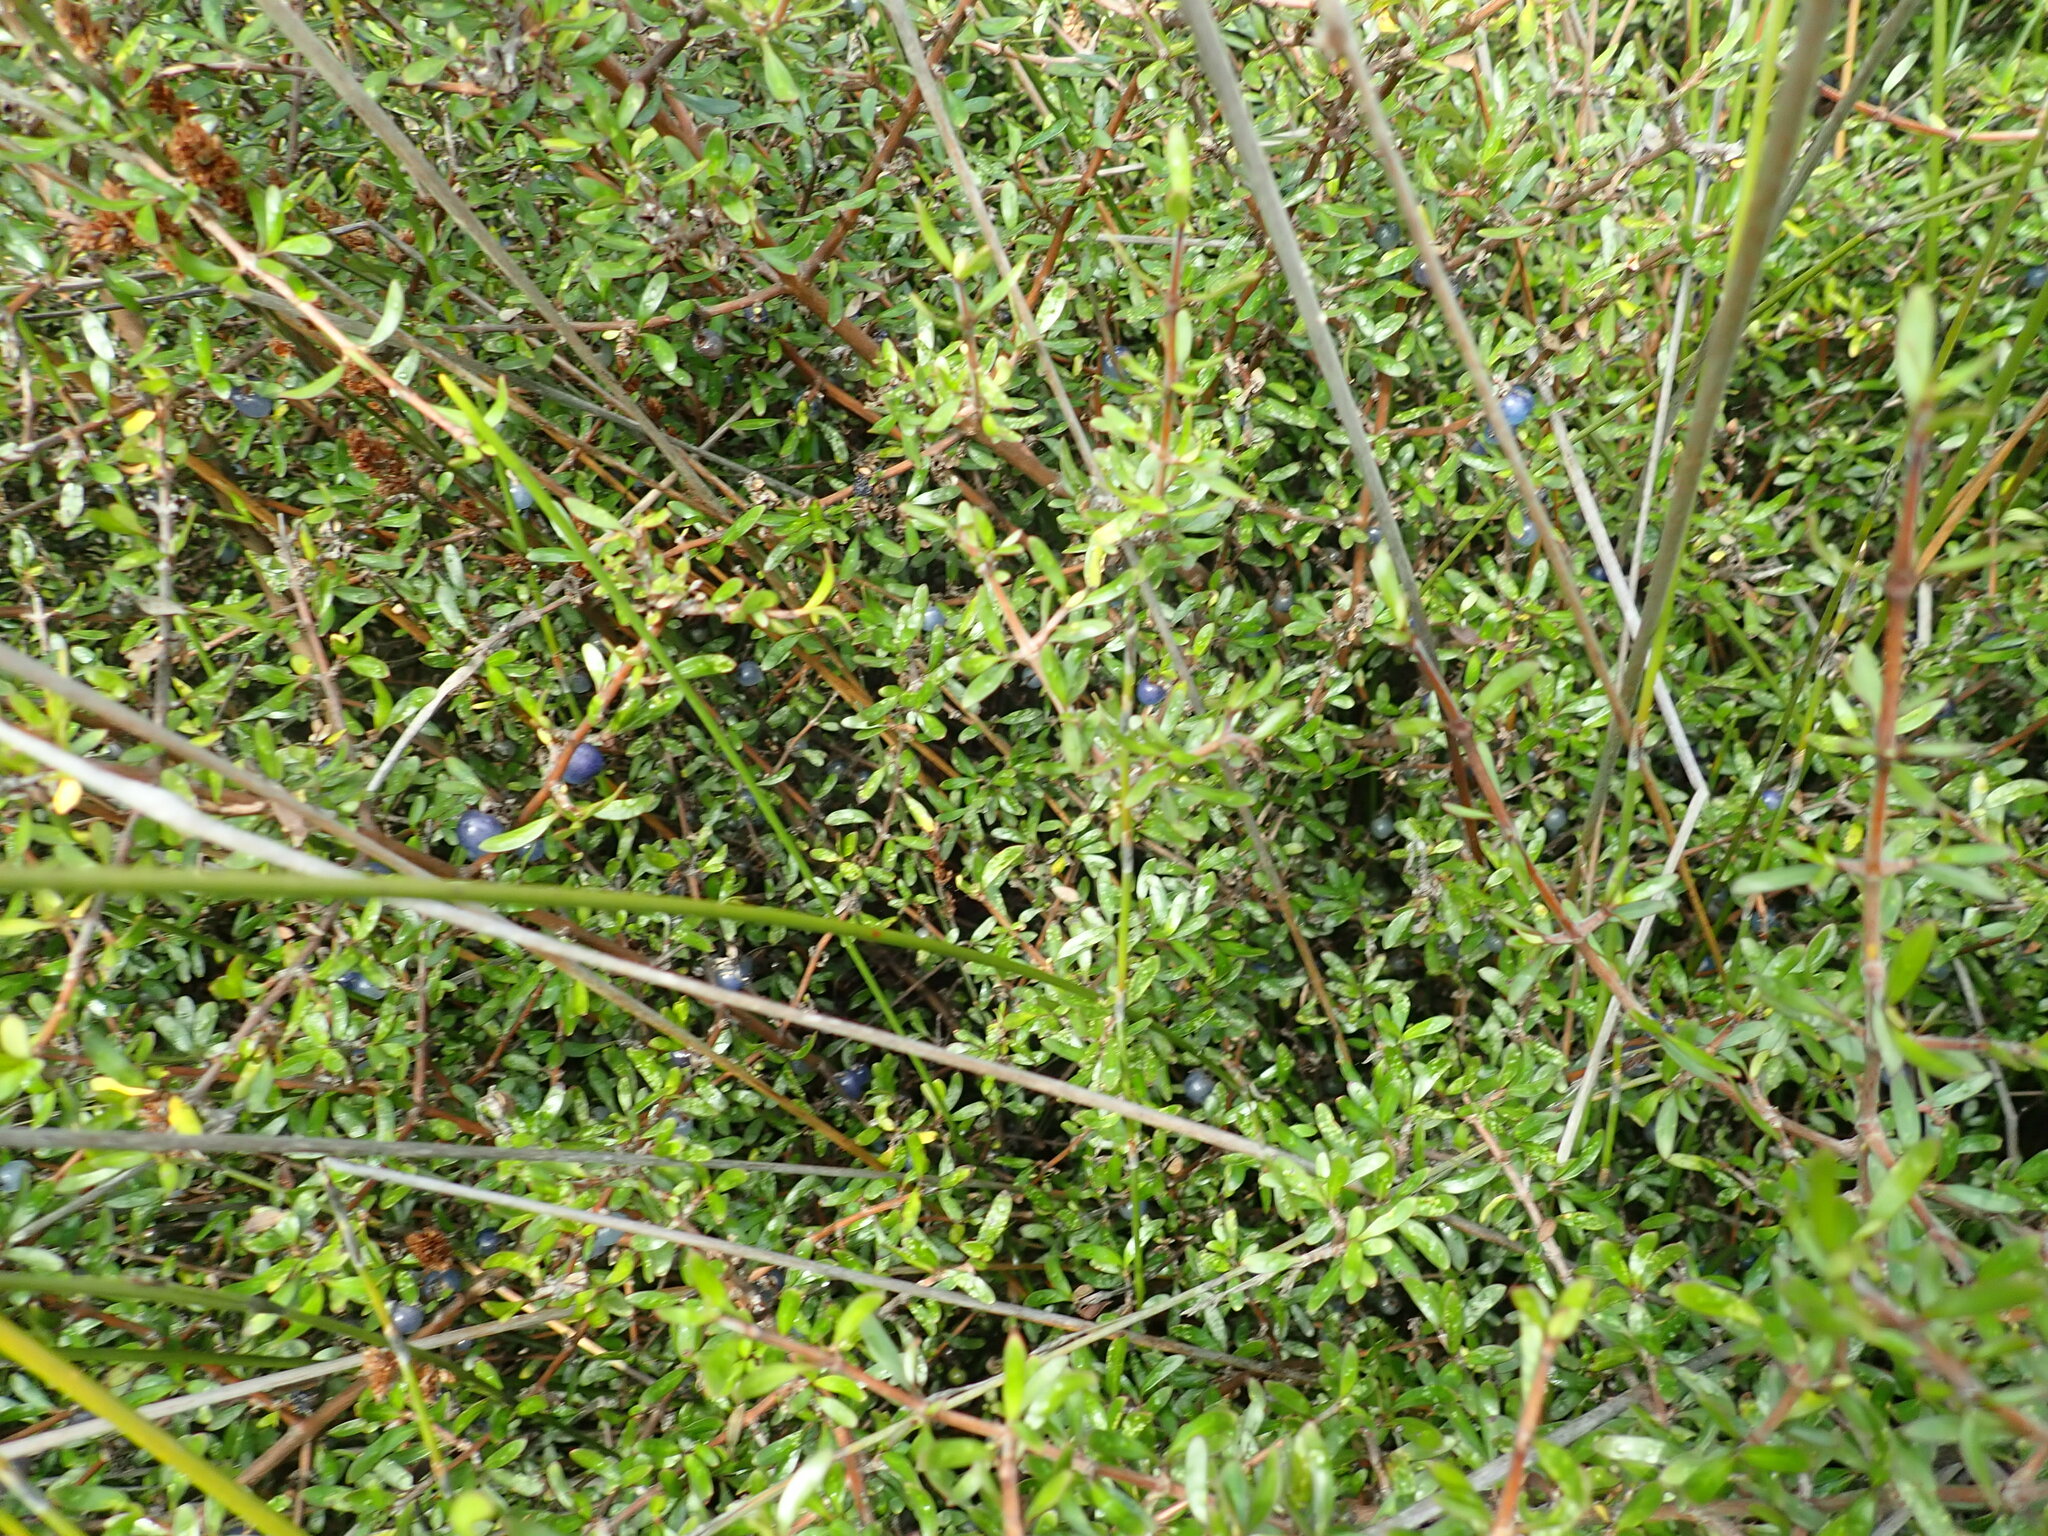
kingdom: Plantae
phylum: Tracheophyta
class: Magnoliopsida
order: Gentianales
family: Rubiaceae
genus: Coprosma
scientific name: Coprosma propinqua
